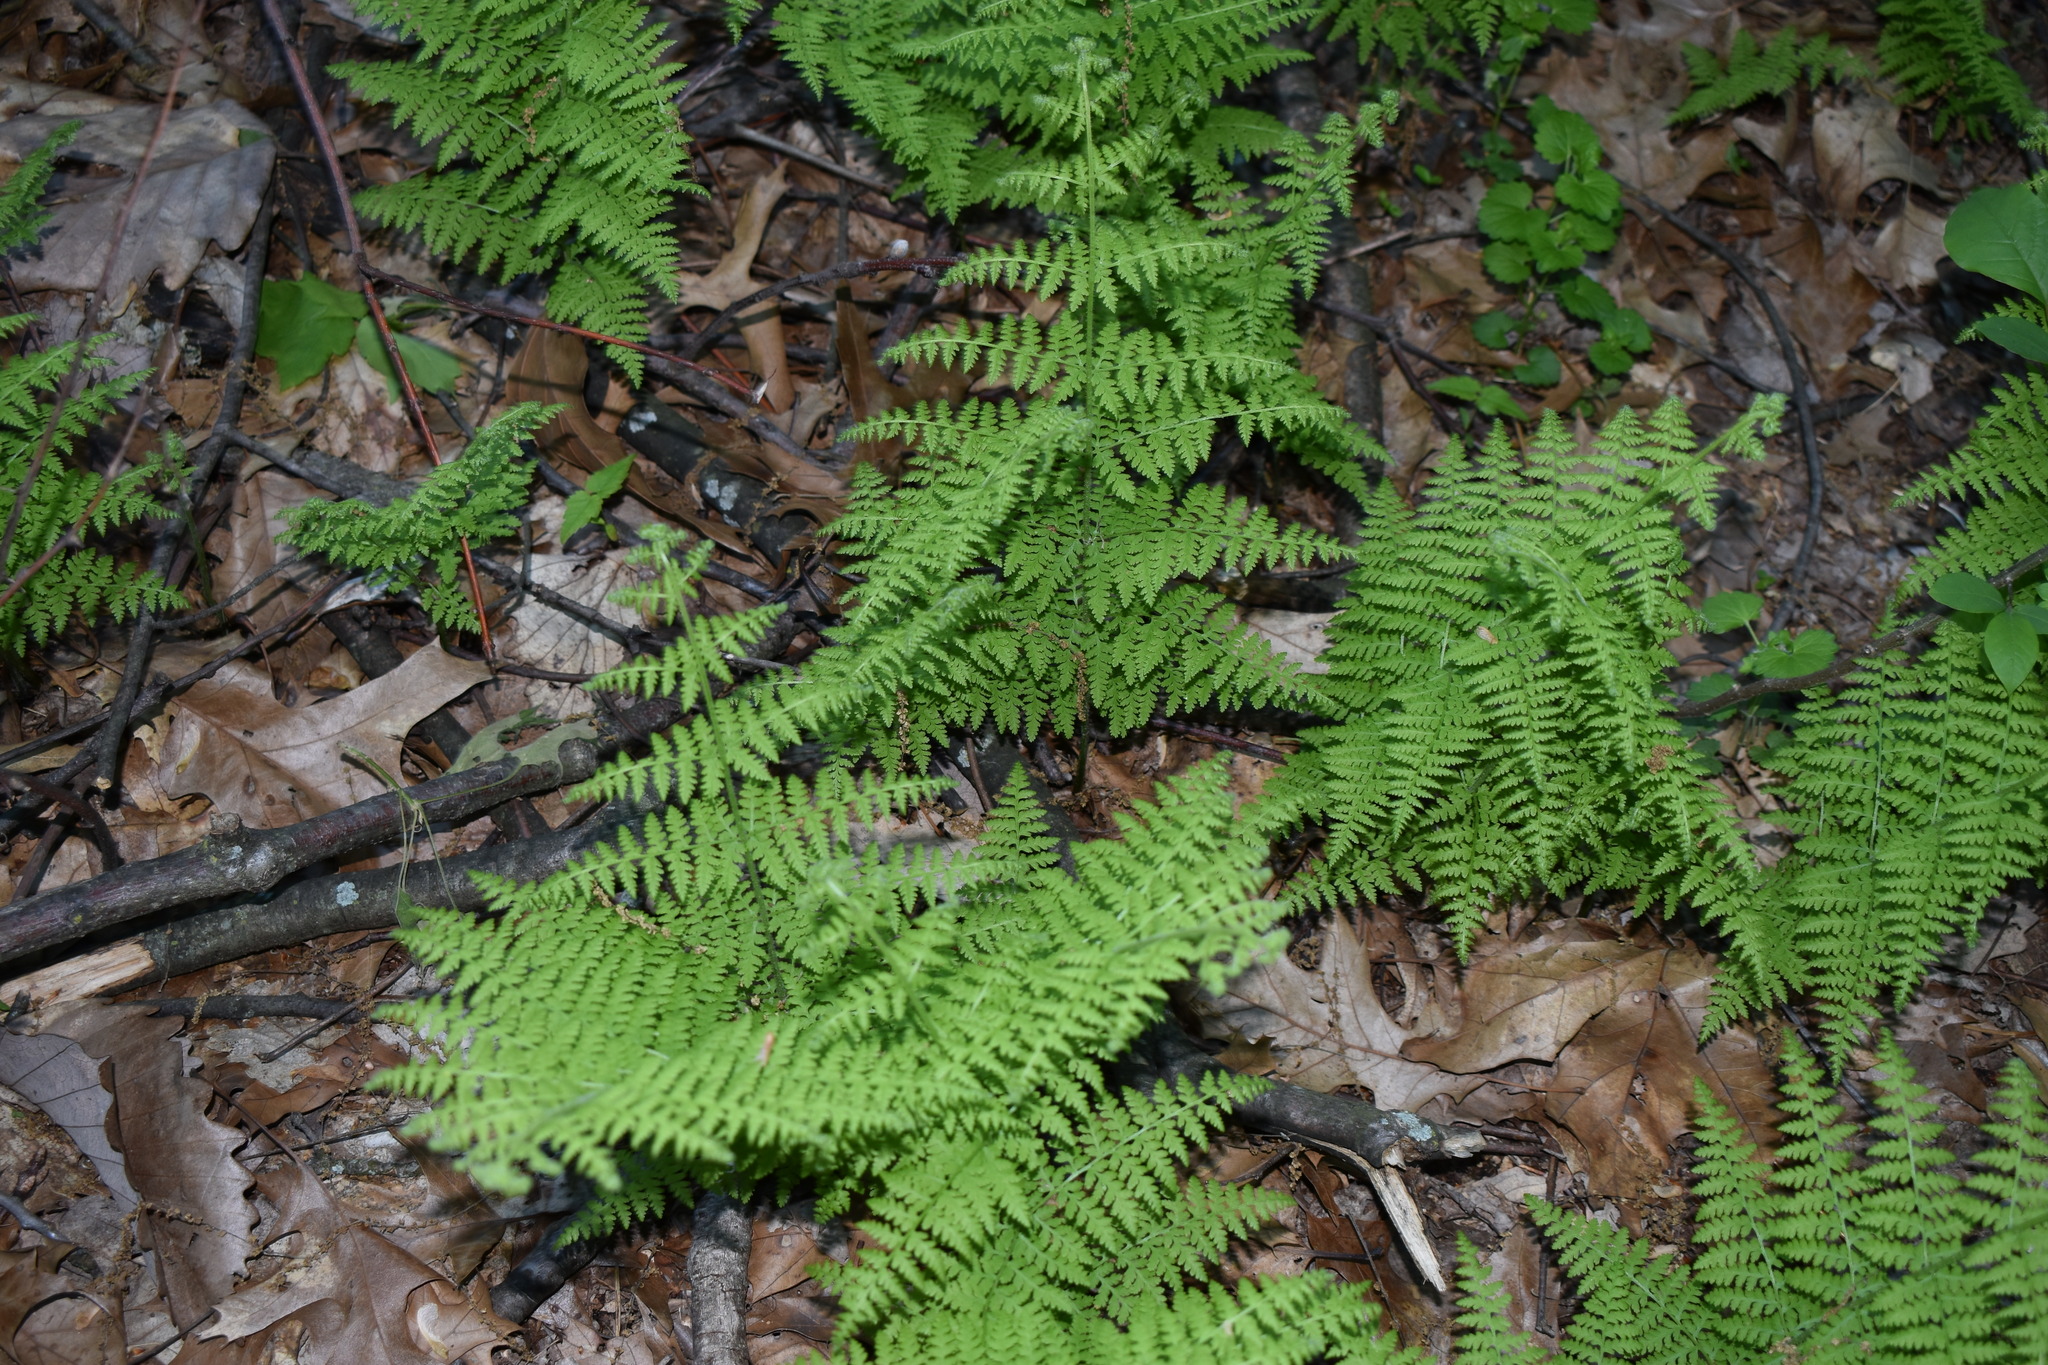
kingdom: Plantae
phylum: Tracheophyta
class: Polypodiopsida
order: Polypodiales
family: Dennstaedtiaceae
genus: Sitobolium
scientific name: Sitobolium punctilobum
